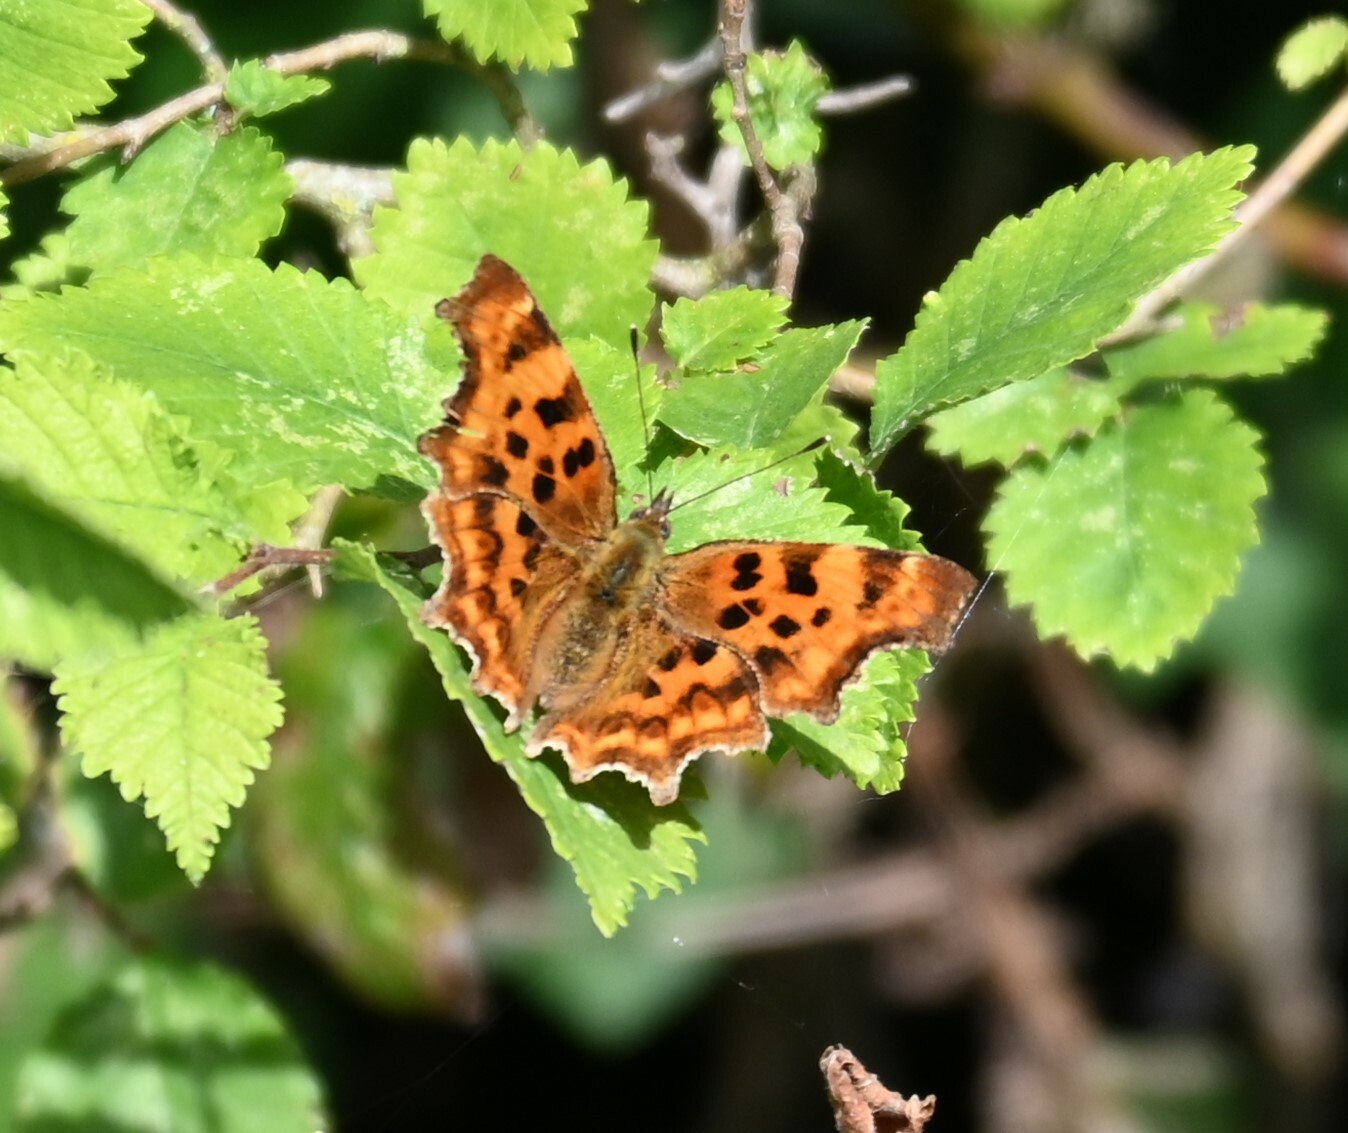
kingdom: Animalia
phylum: Arthropoda
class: Insecta
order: Lepidoptera
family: Nymphalidae
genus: Polygonia
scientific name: Polygonia c-album
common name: Comma
